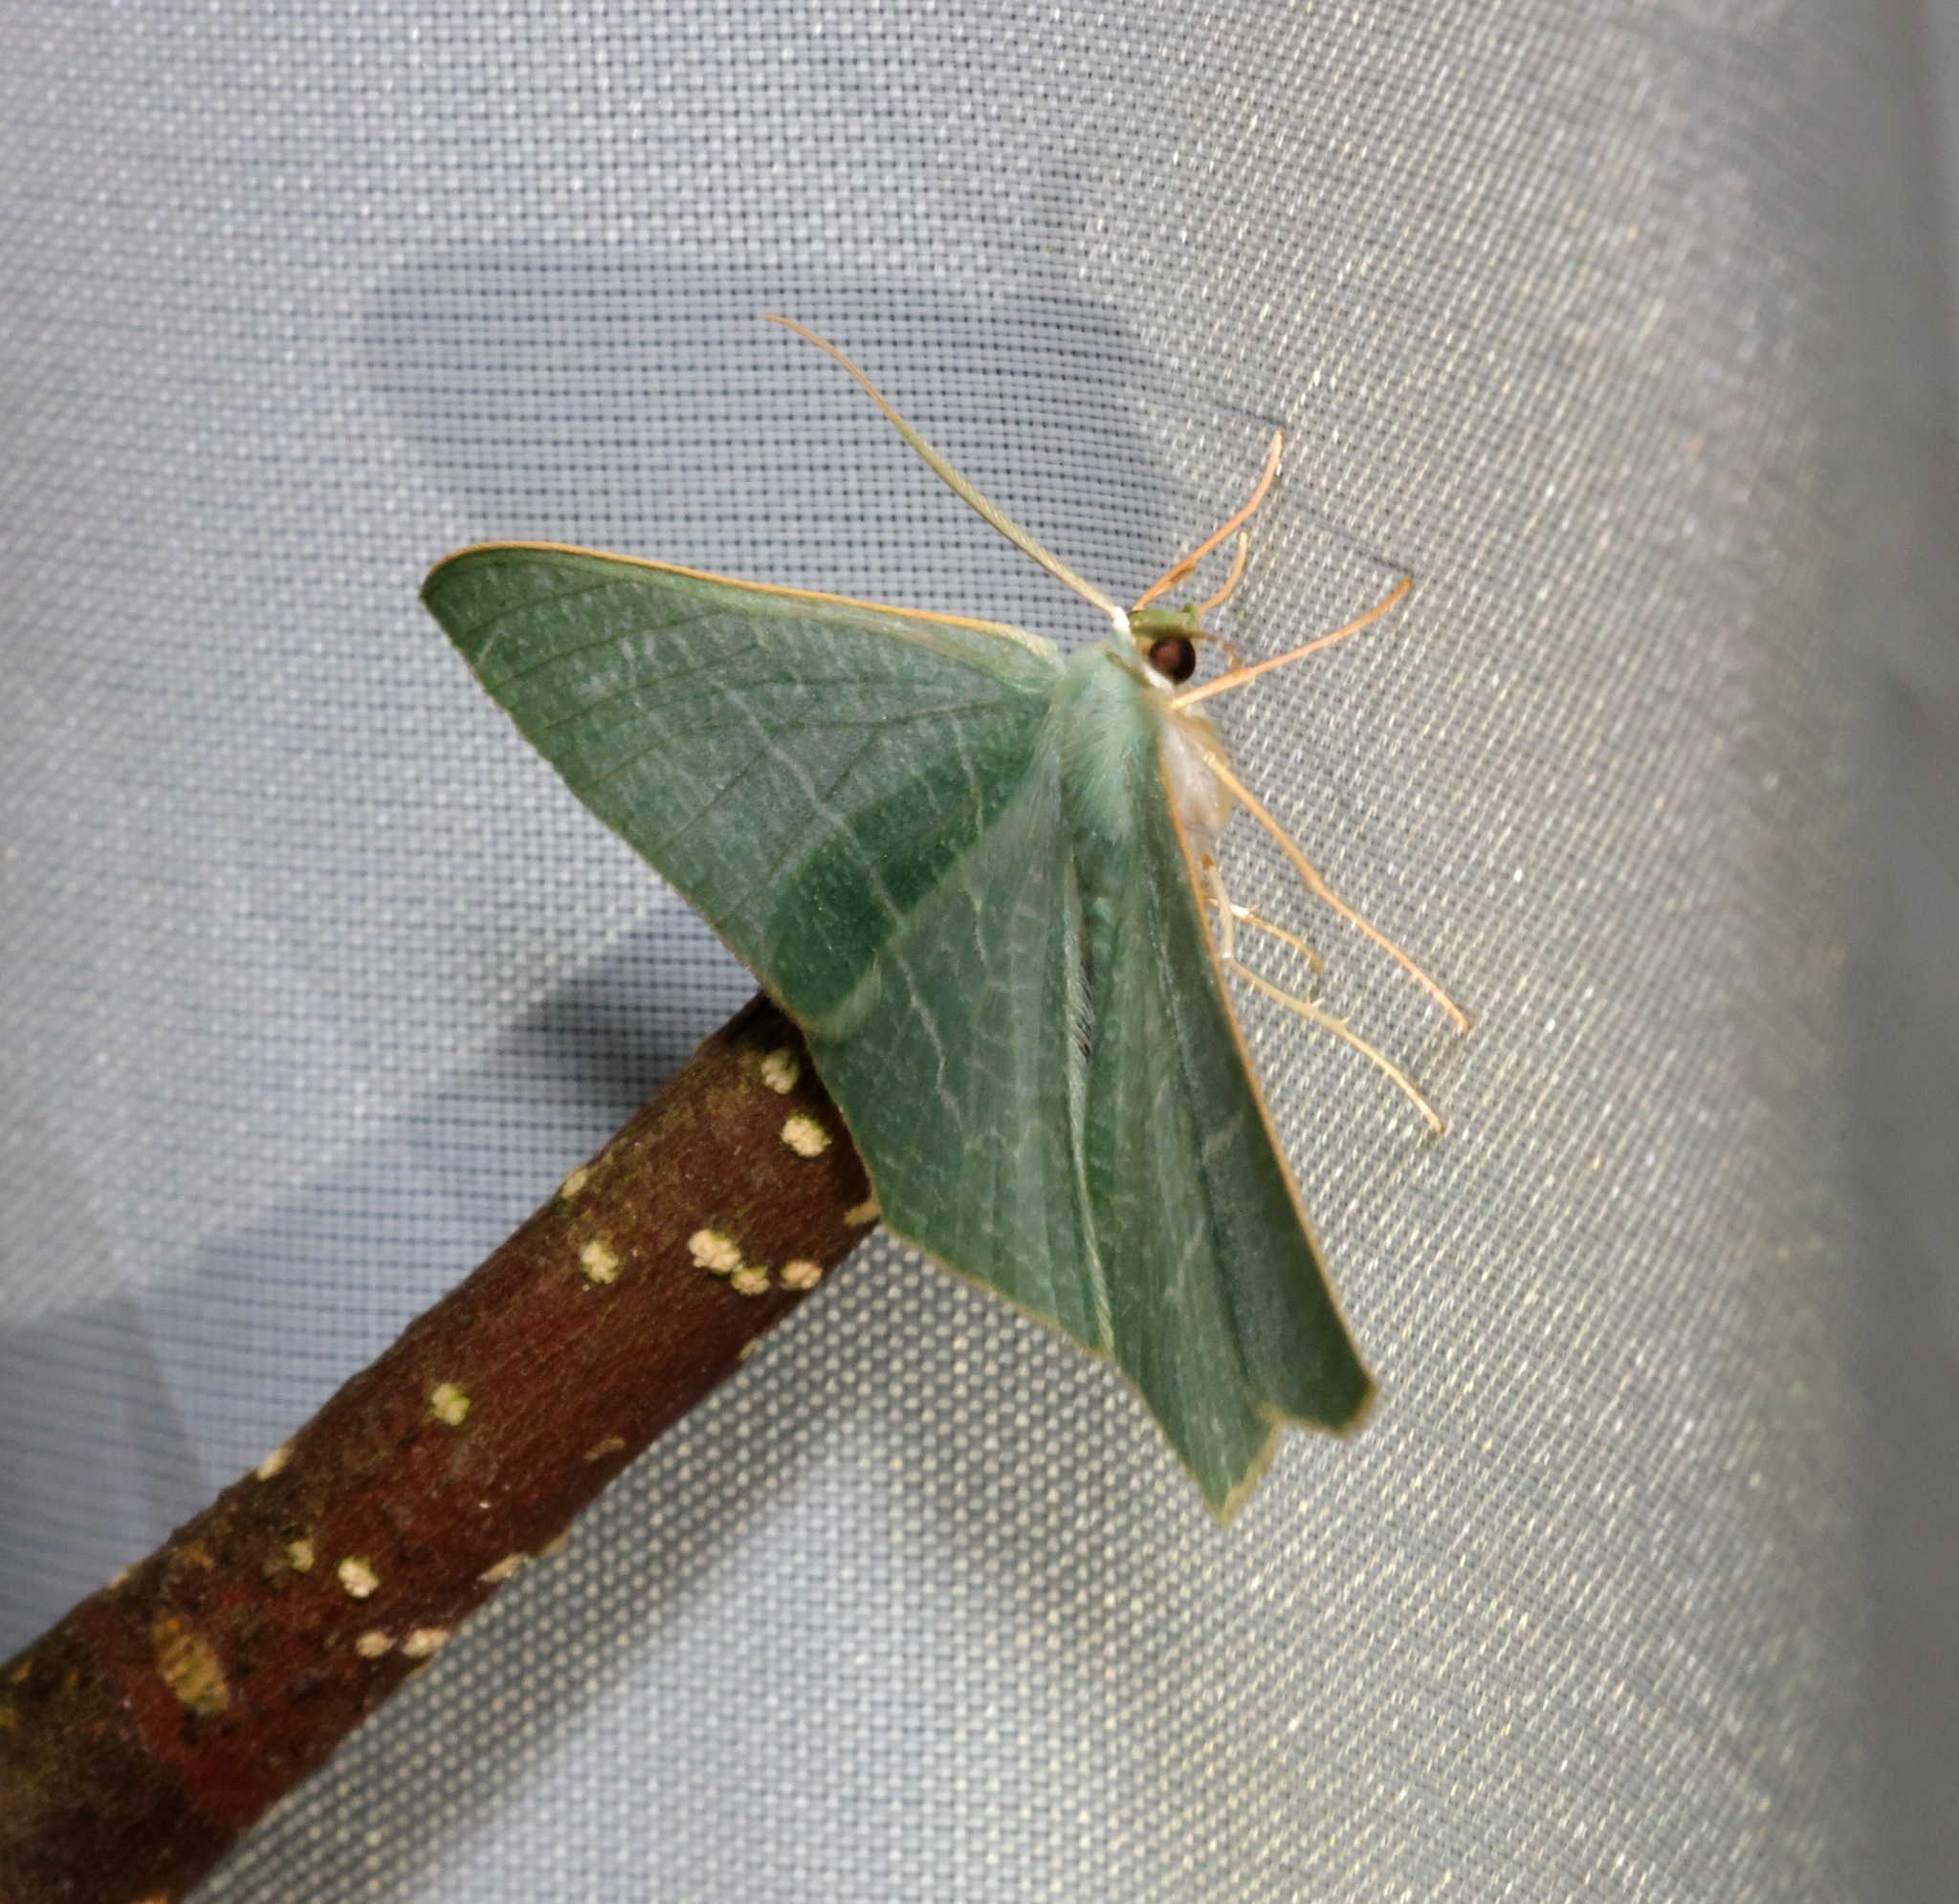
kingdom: Animalia
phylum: Arthropoda
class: Insecta
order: Lepidoptera
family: Geometridae
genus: Pelagodes
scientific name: Pelagodes antiquadraria
